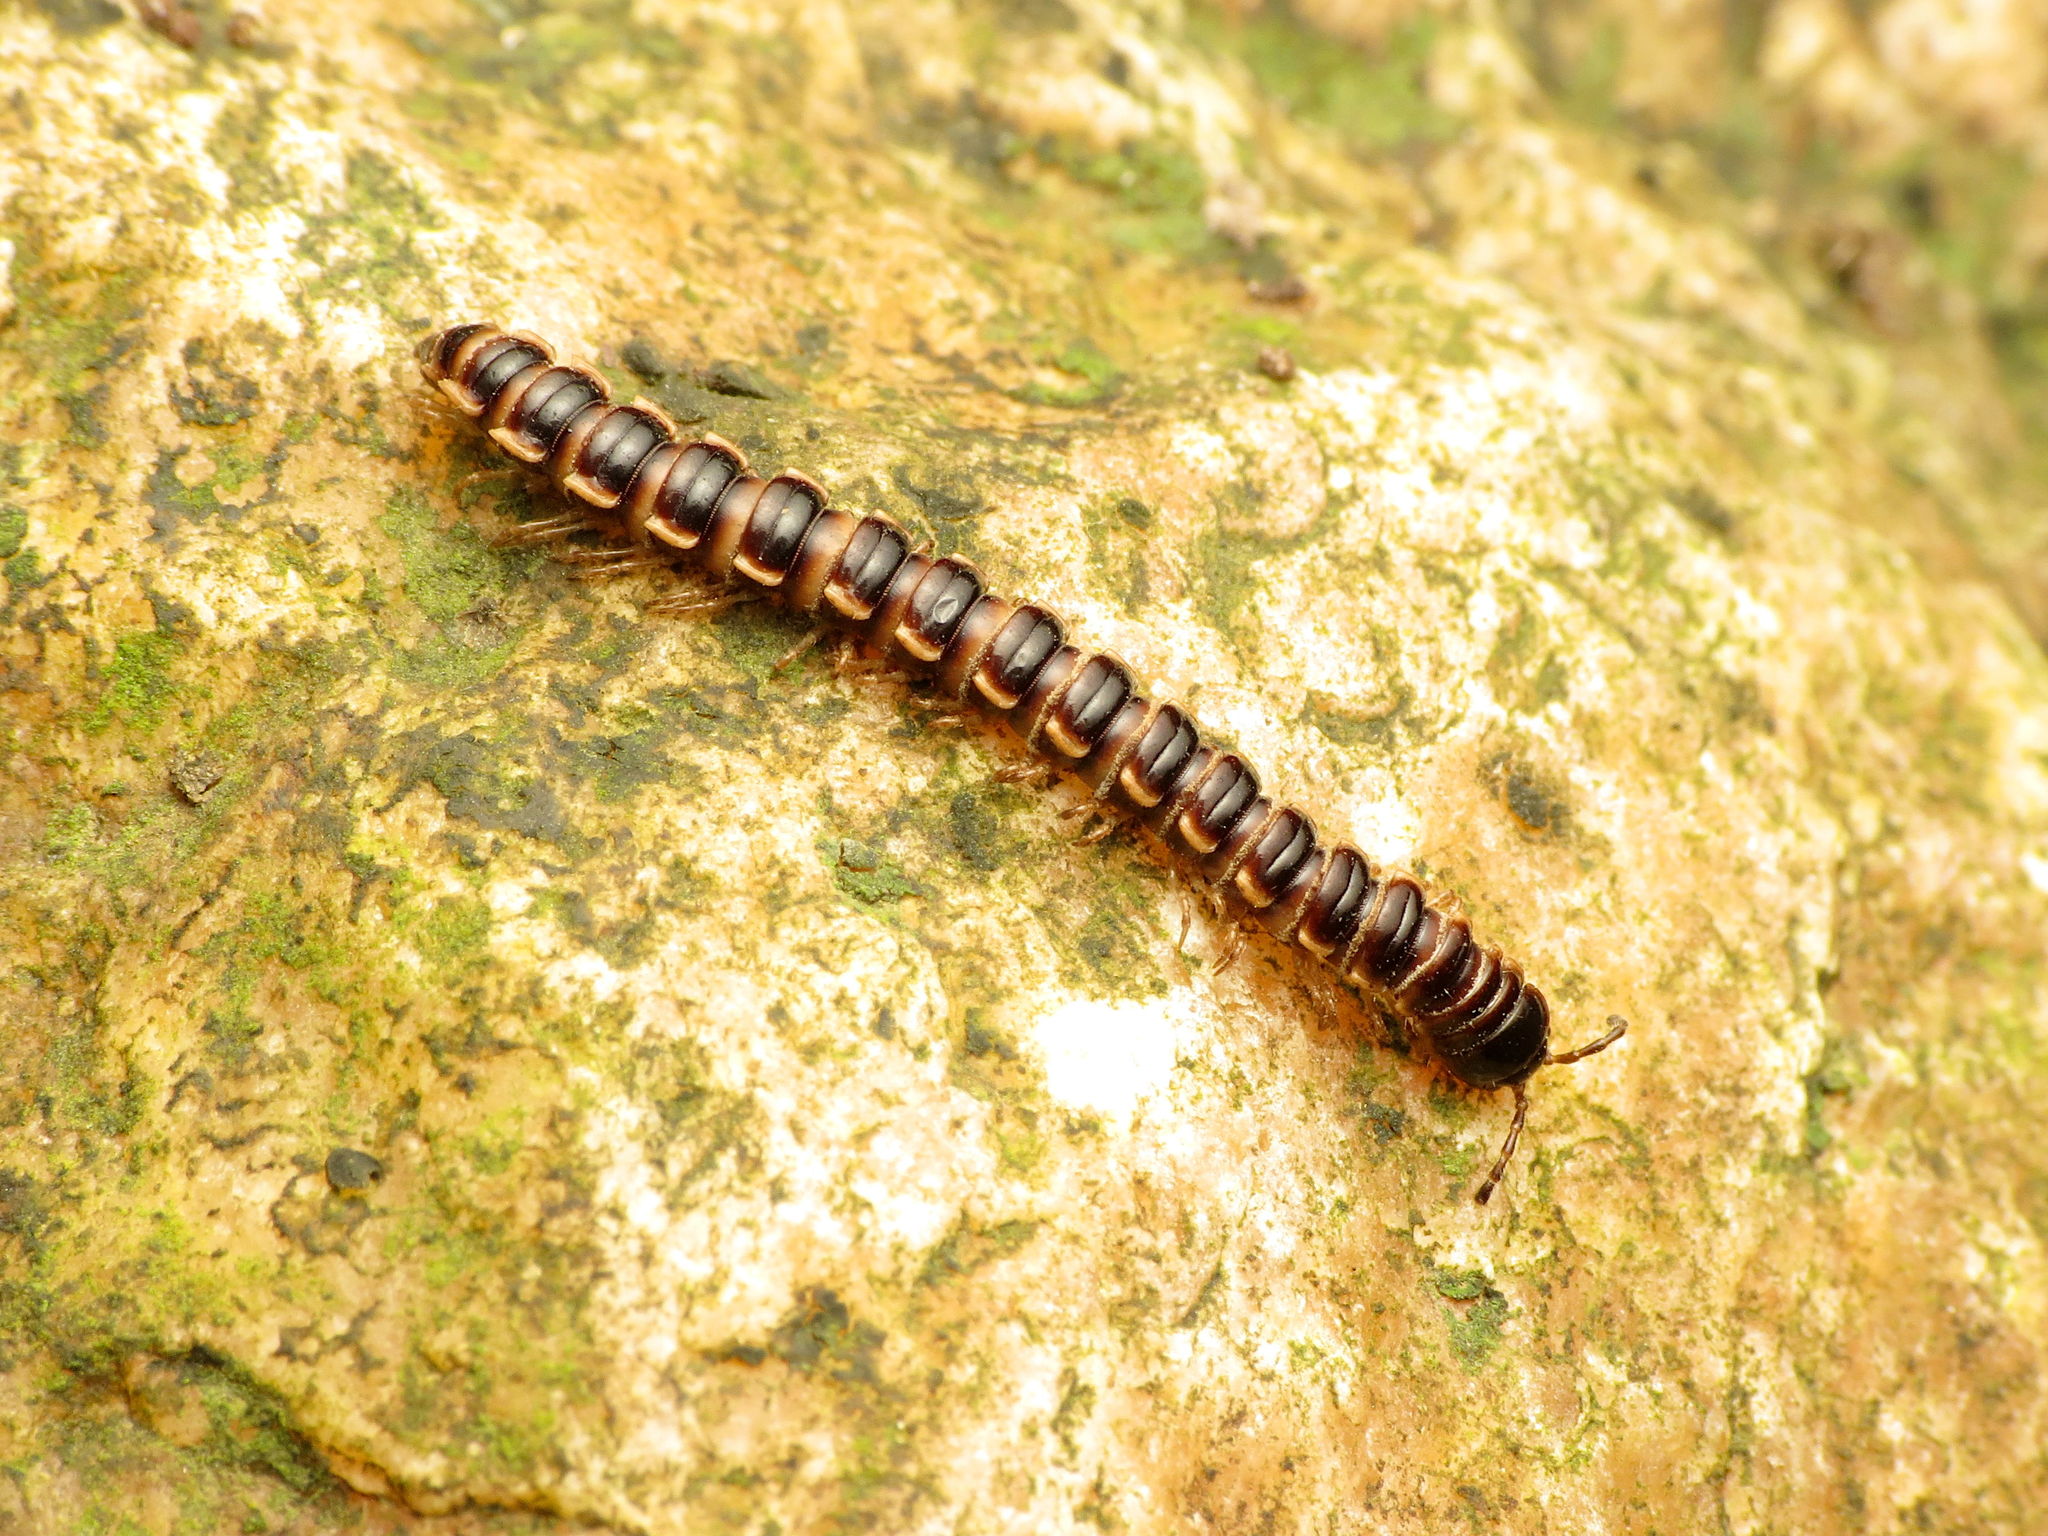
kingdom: Animalia
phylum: Arthropoda
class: Diplopoda
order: Polydesmida
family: Paradoxosomatidae
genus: Oxidus
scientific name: Oxidus gracilis
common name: Greenhouse millipede
